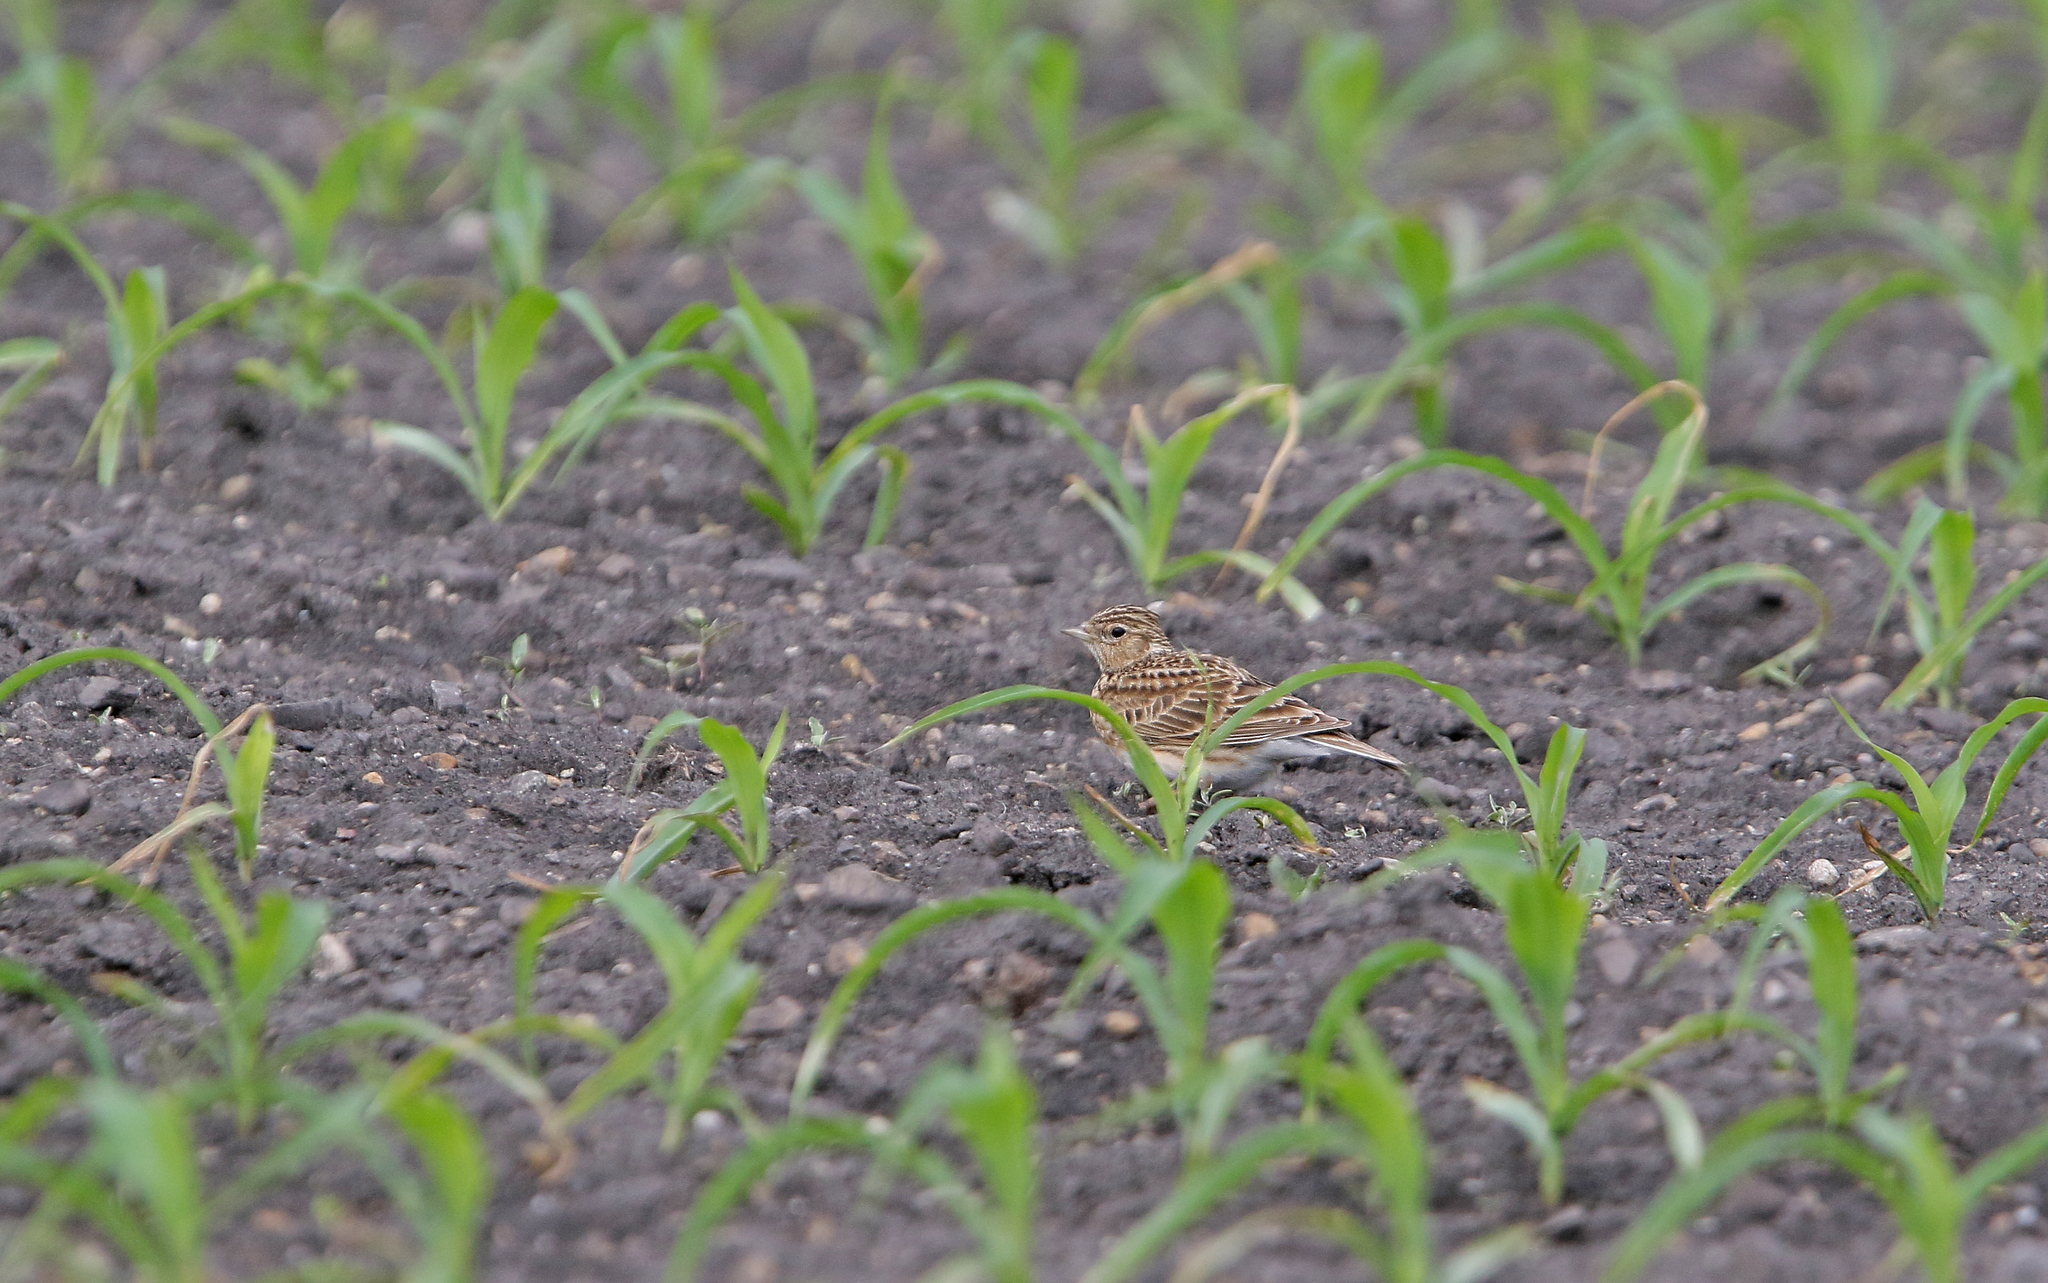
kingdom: Animalia
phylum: Chordata
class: Aves
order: Passeriformes
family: Alaudidae
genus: Alauda
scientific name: Alauda arvensis
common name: Eurasian skylark
